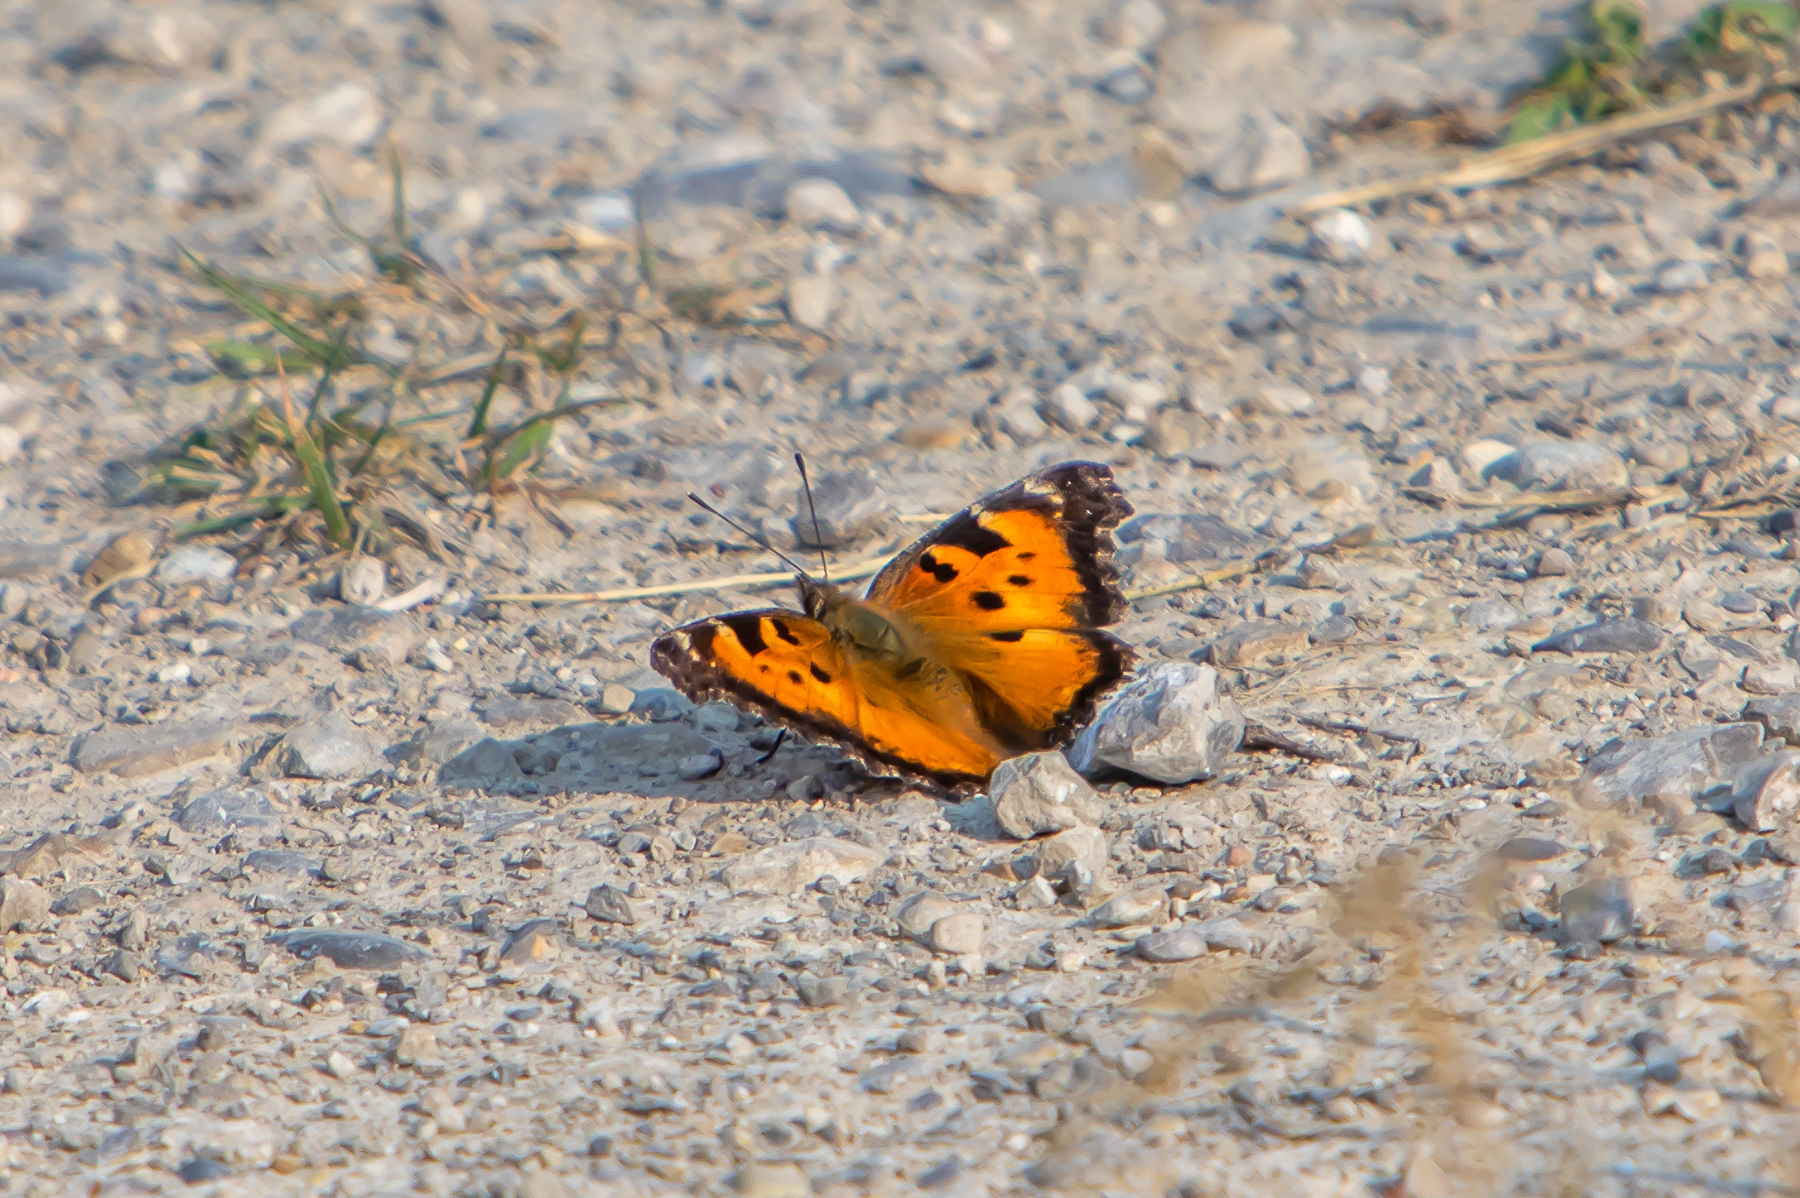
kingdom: Animalia
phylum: Arthropoda
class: Insecta
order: Lepidoptera
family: Nymphalidae
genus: Nymphalis
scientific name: Nymphalis californica
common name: California tortoiseshell
